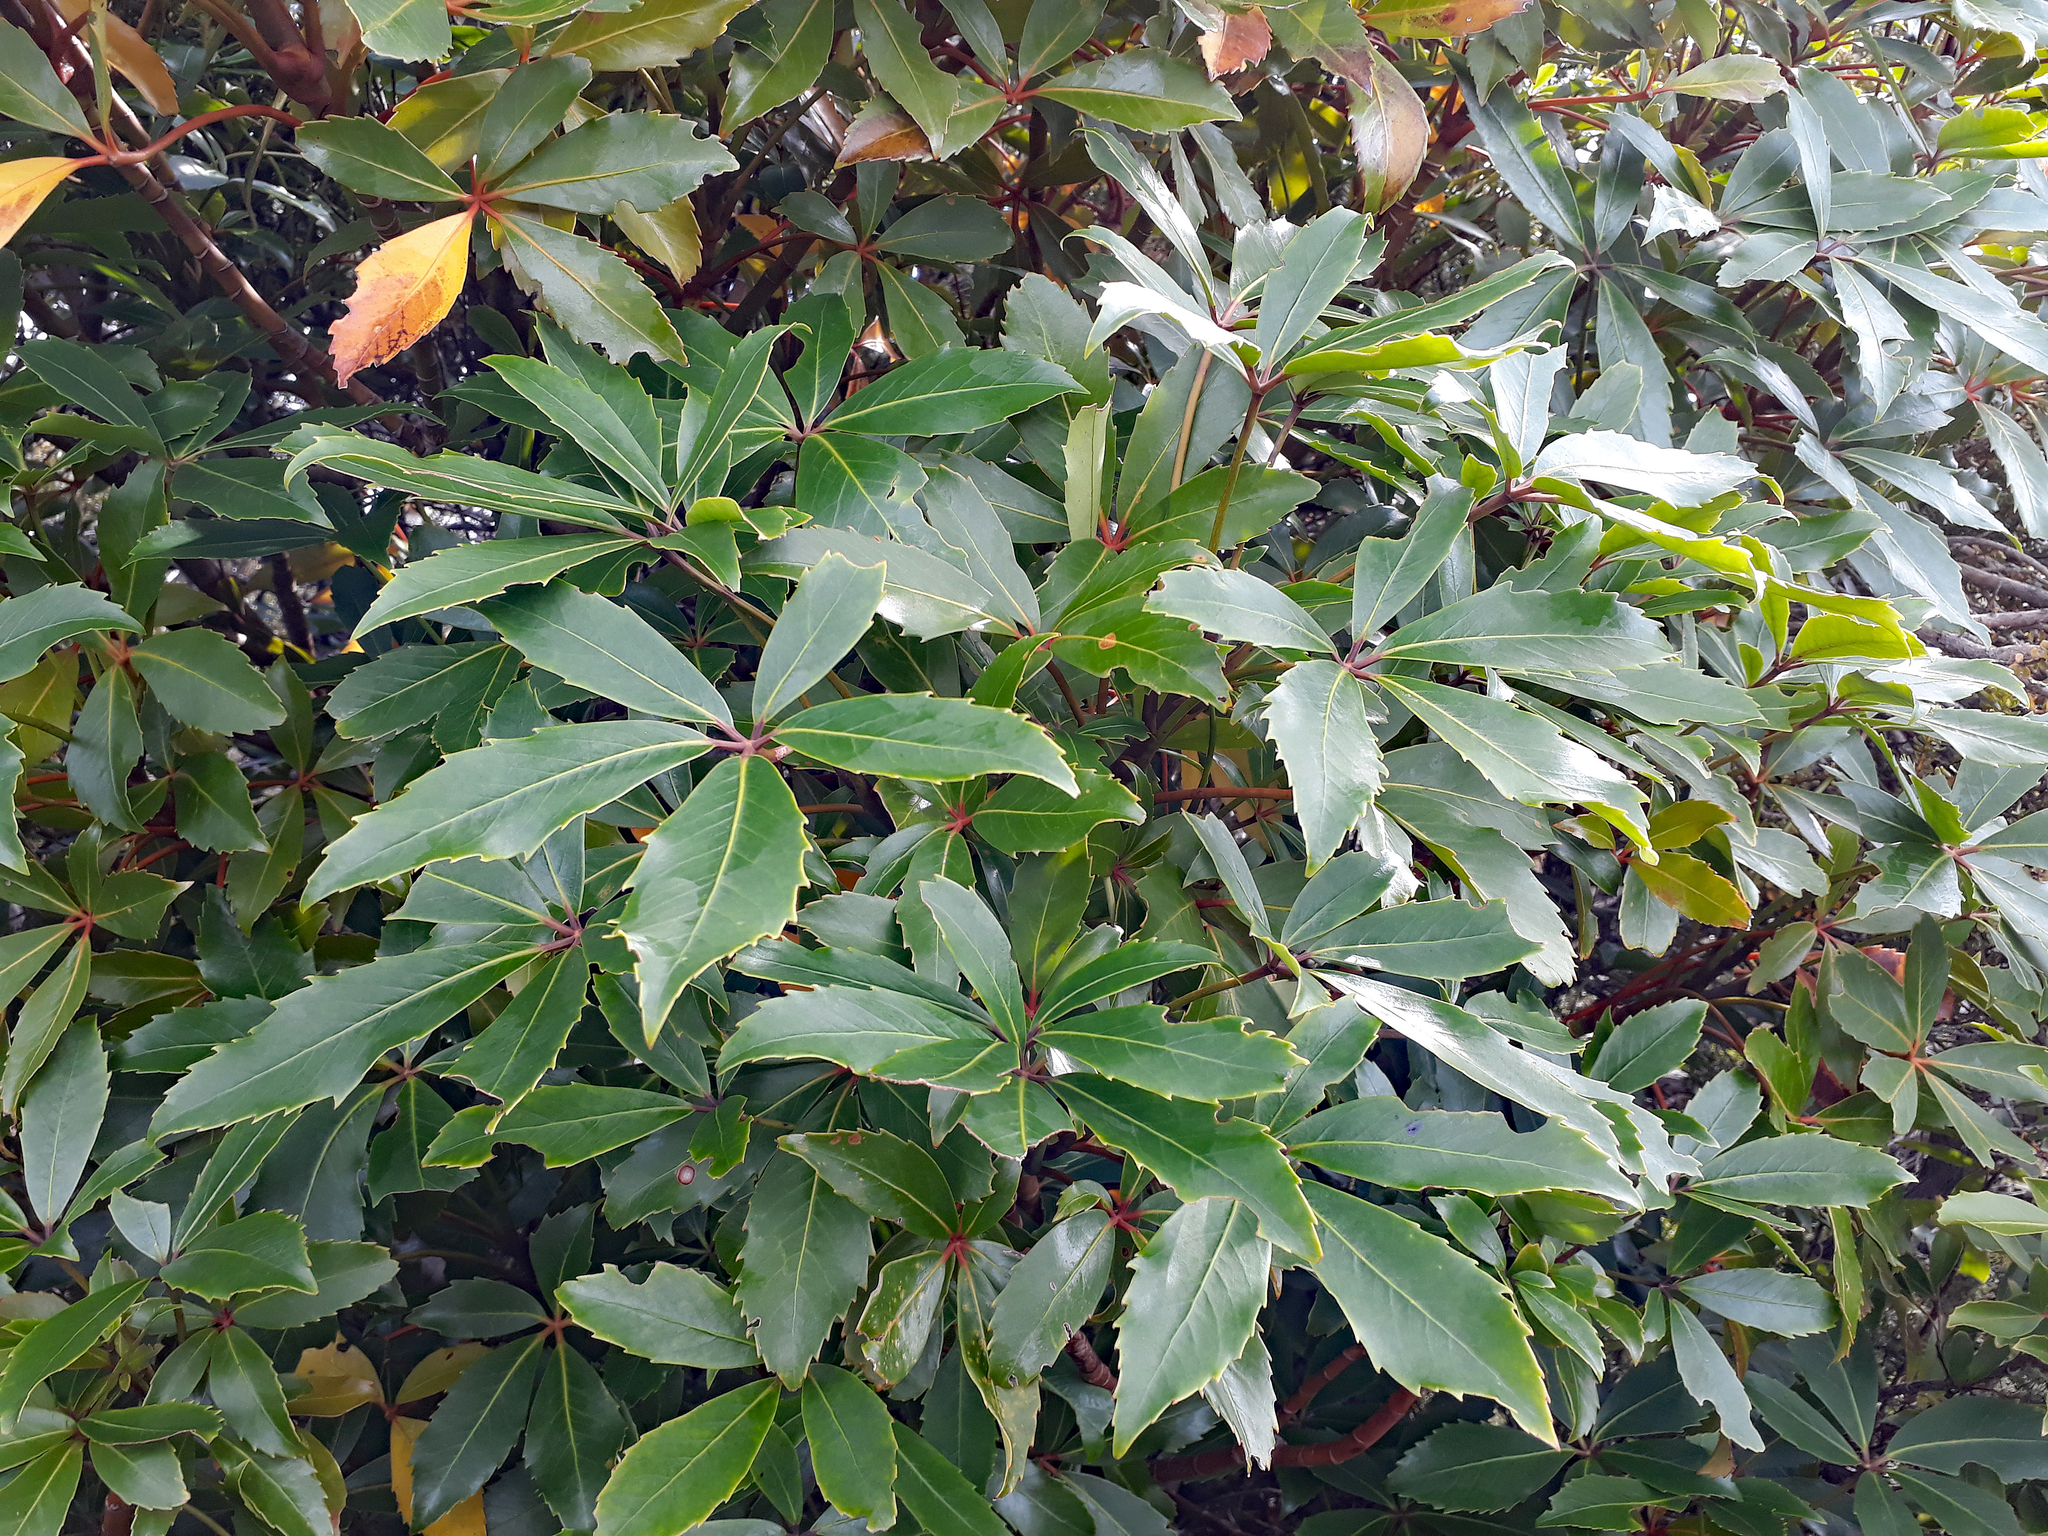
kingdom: Plantae
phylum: Tracheophyta
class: Magnoliopsida
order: Apiales
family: Araliaceae
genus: Neopanax
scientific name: Neopanax colensoi
